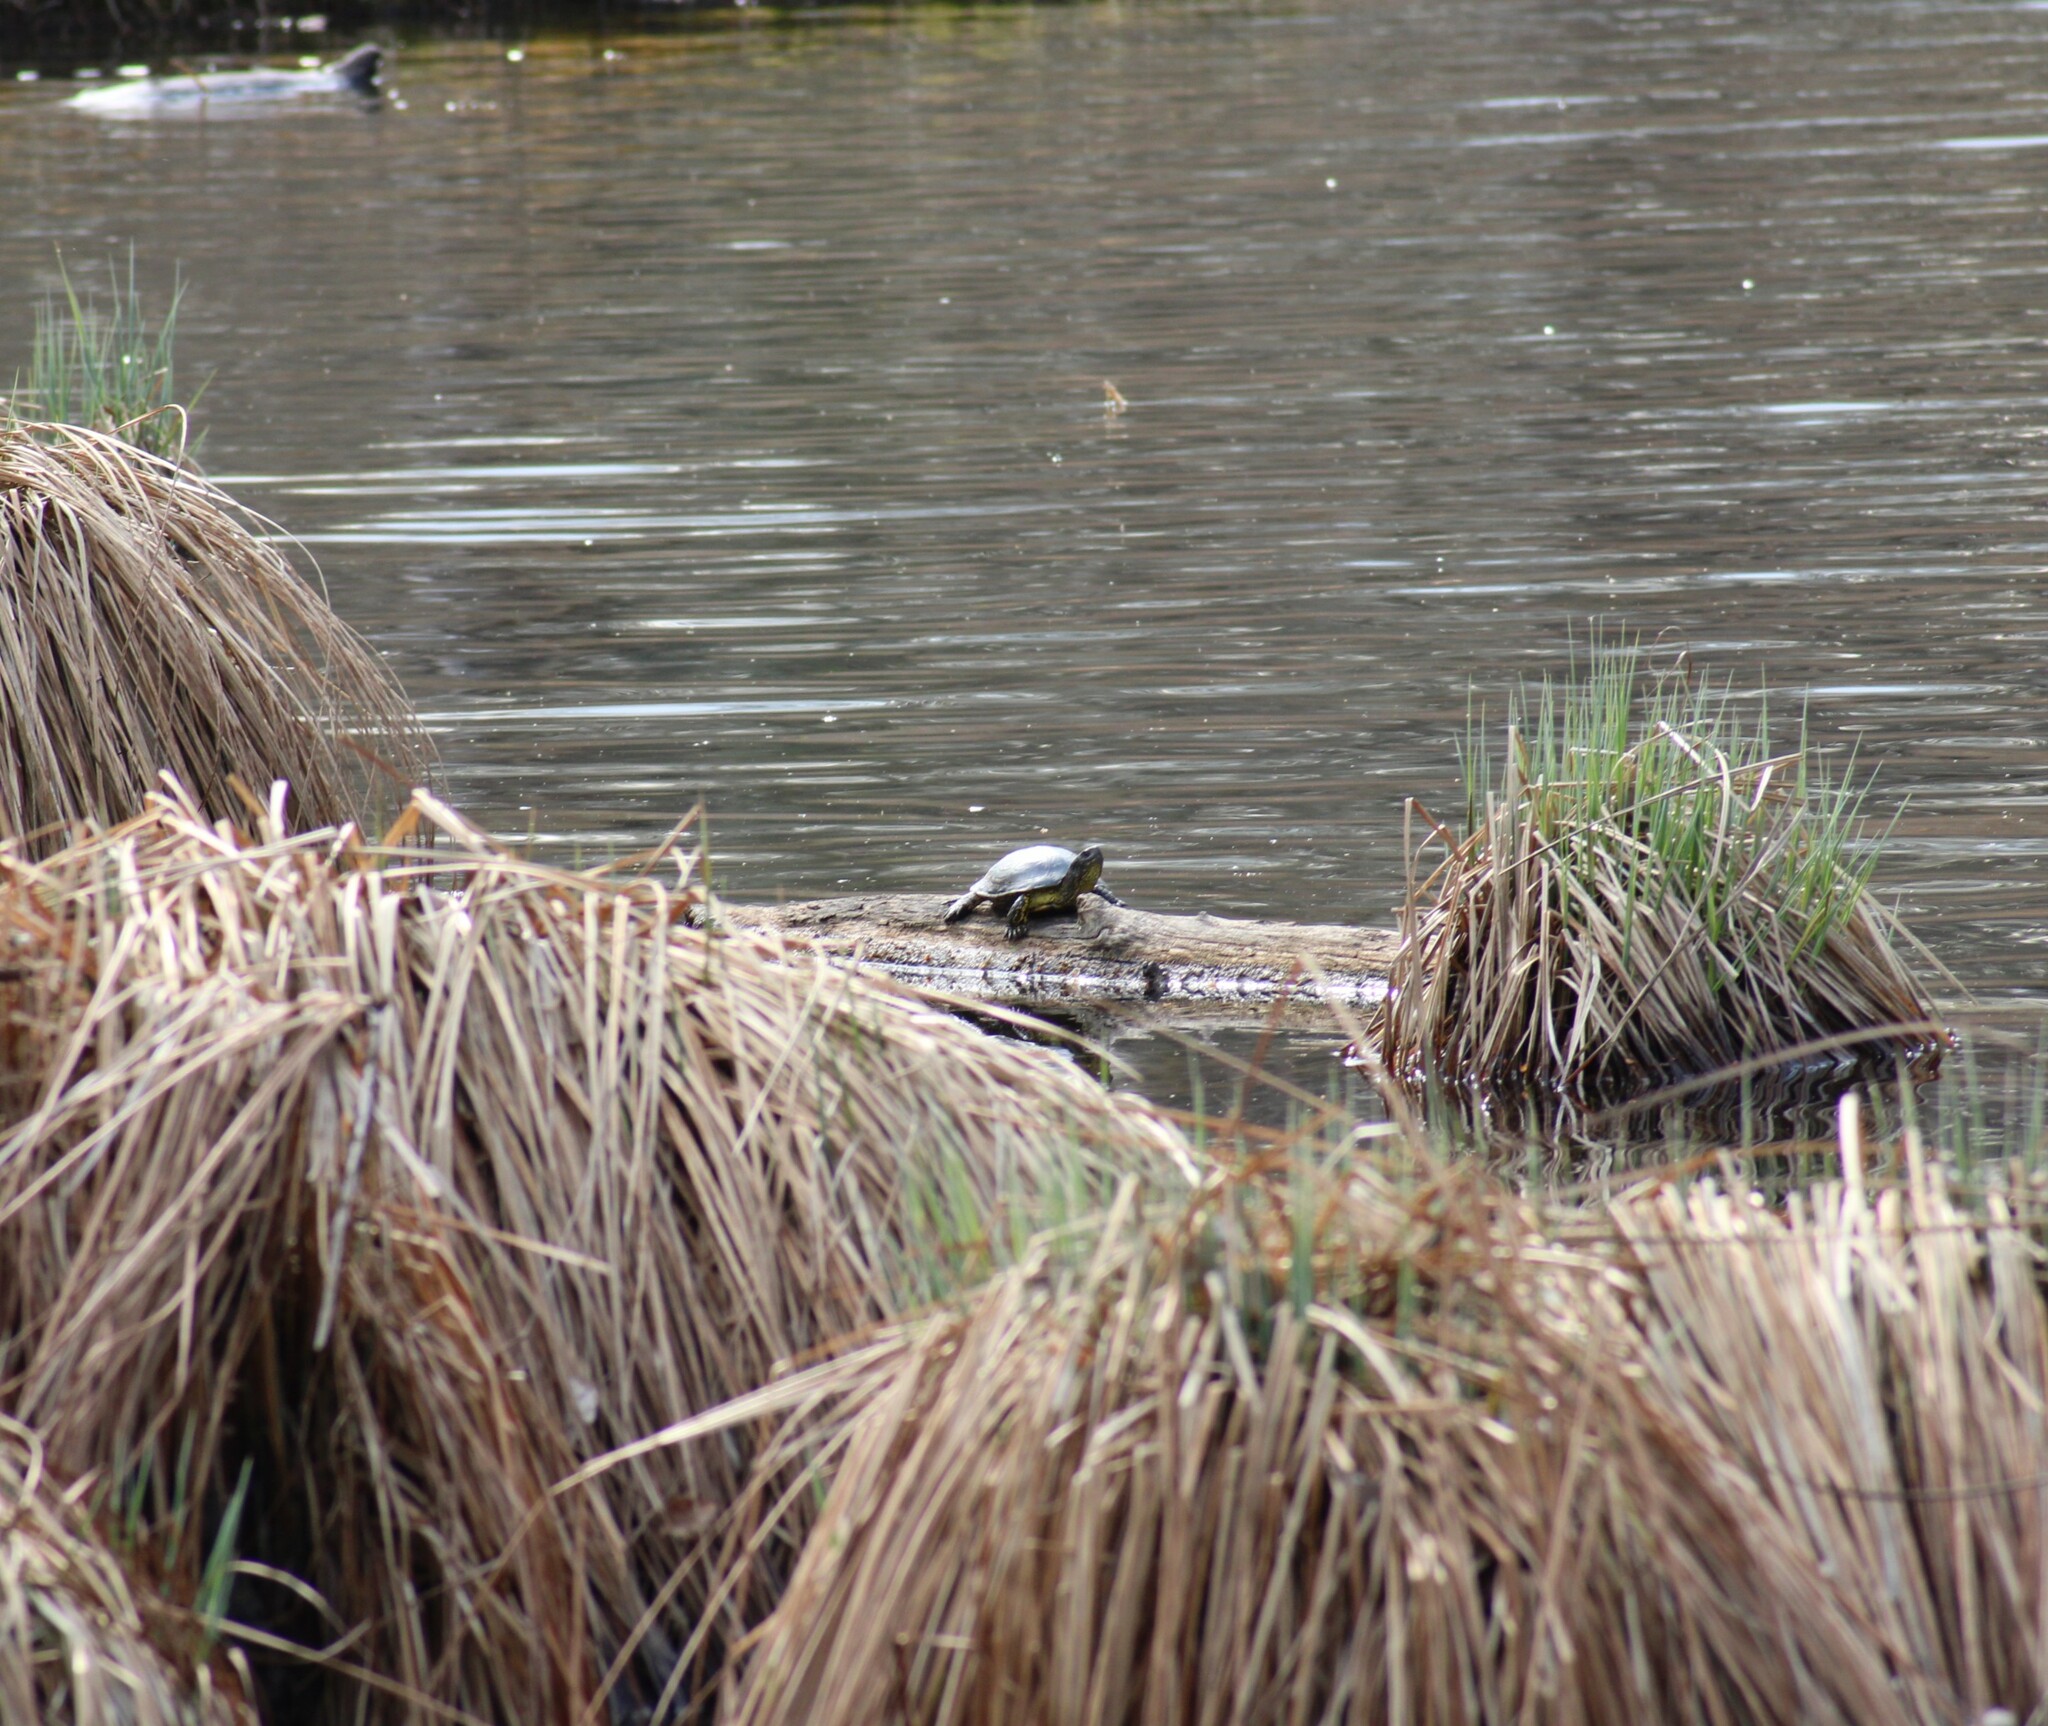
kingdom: Animalia
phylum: Chordata
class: Testudines
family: Emydidae
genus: Emys
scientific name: Emys orbicularis
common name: European pond turtle
